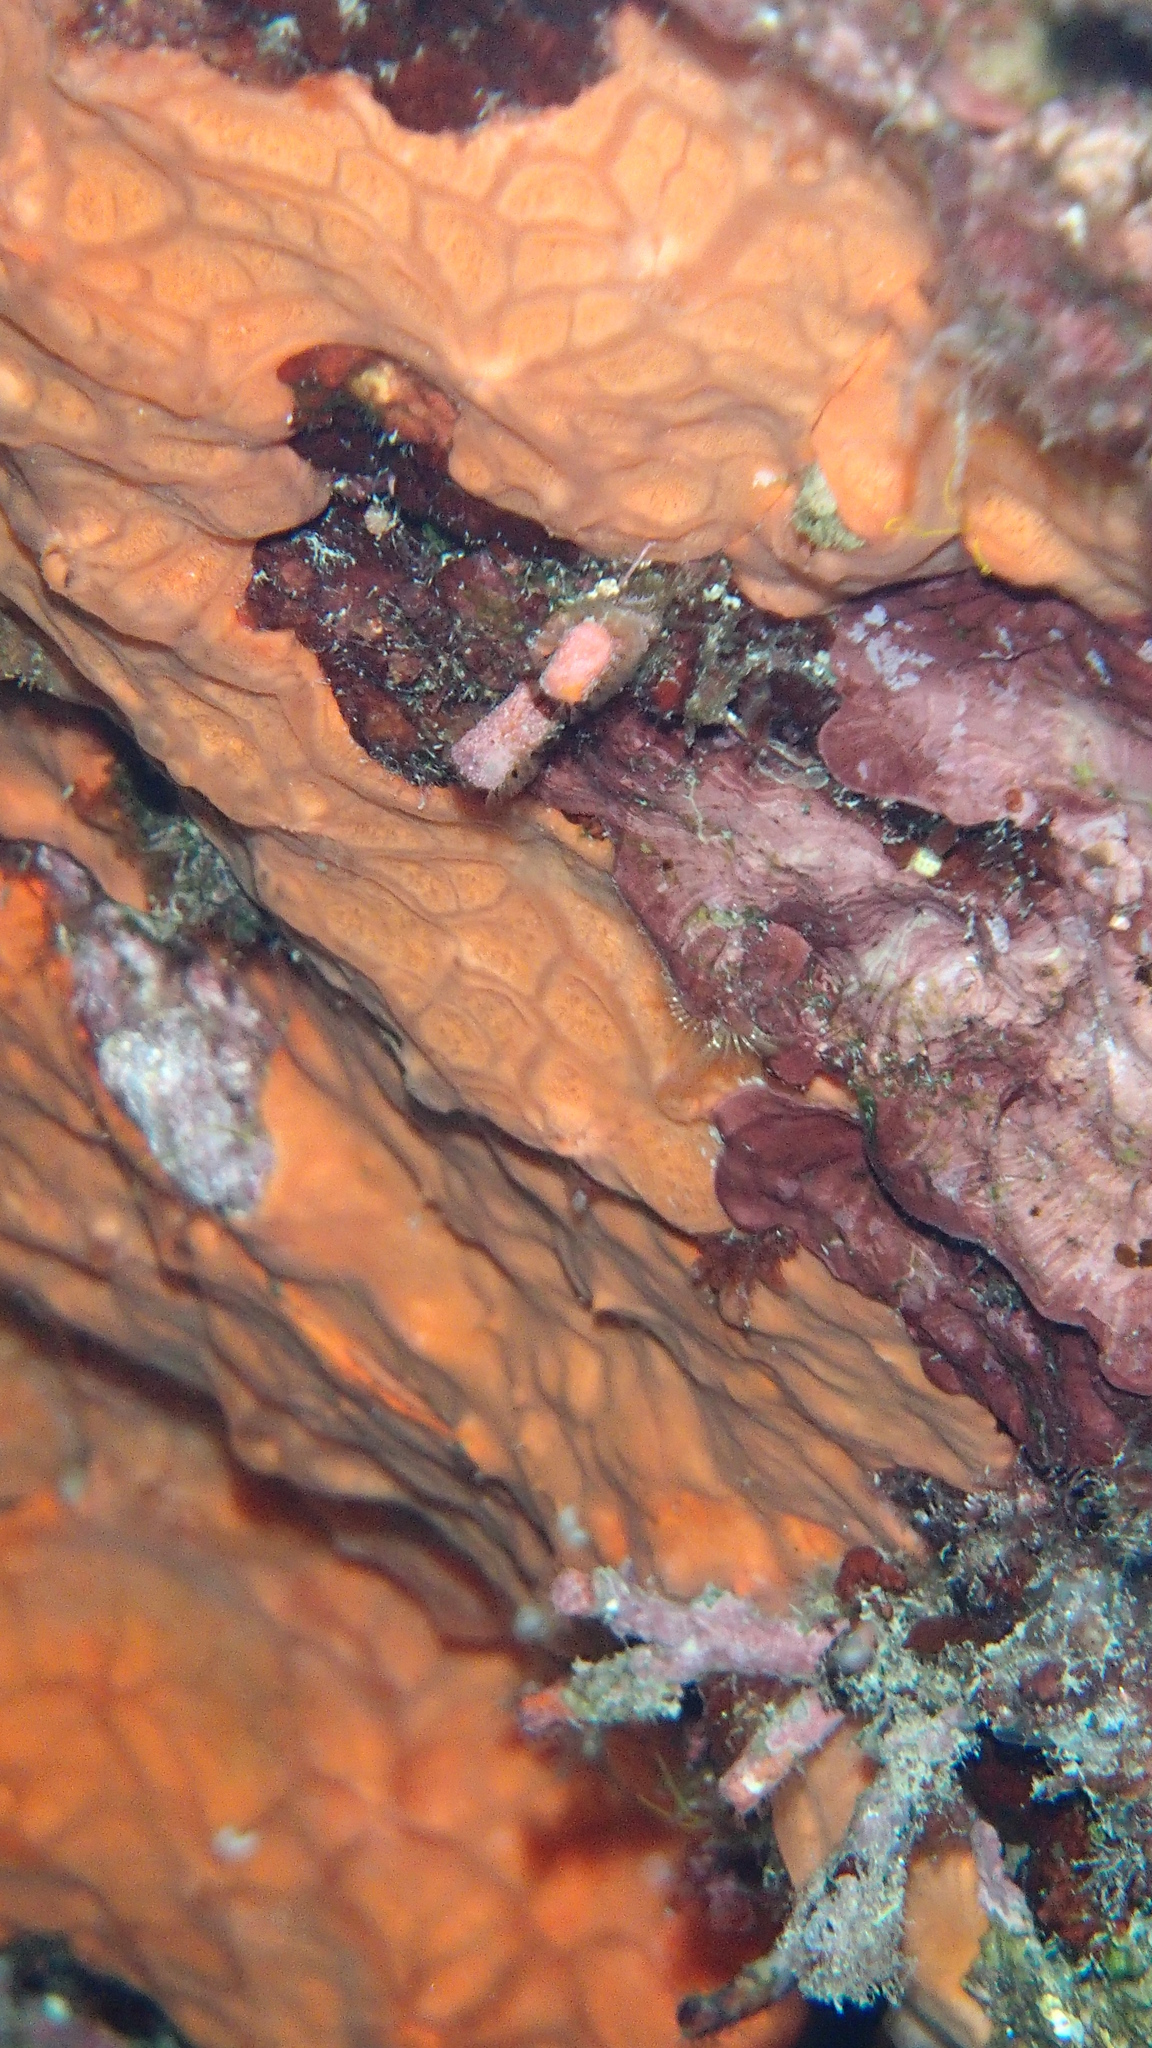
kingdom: Animalia
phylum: Porifera
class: Demospongiae
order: Clionaida
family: Spirastrellidae
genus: Spirastrella
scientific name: Spirastrella cunctatrix
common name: Encrusting orange sponge
